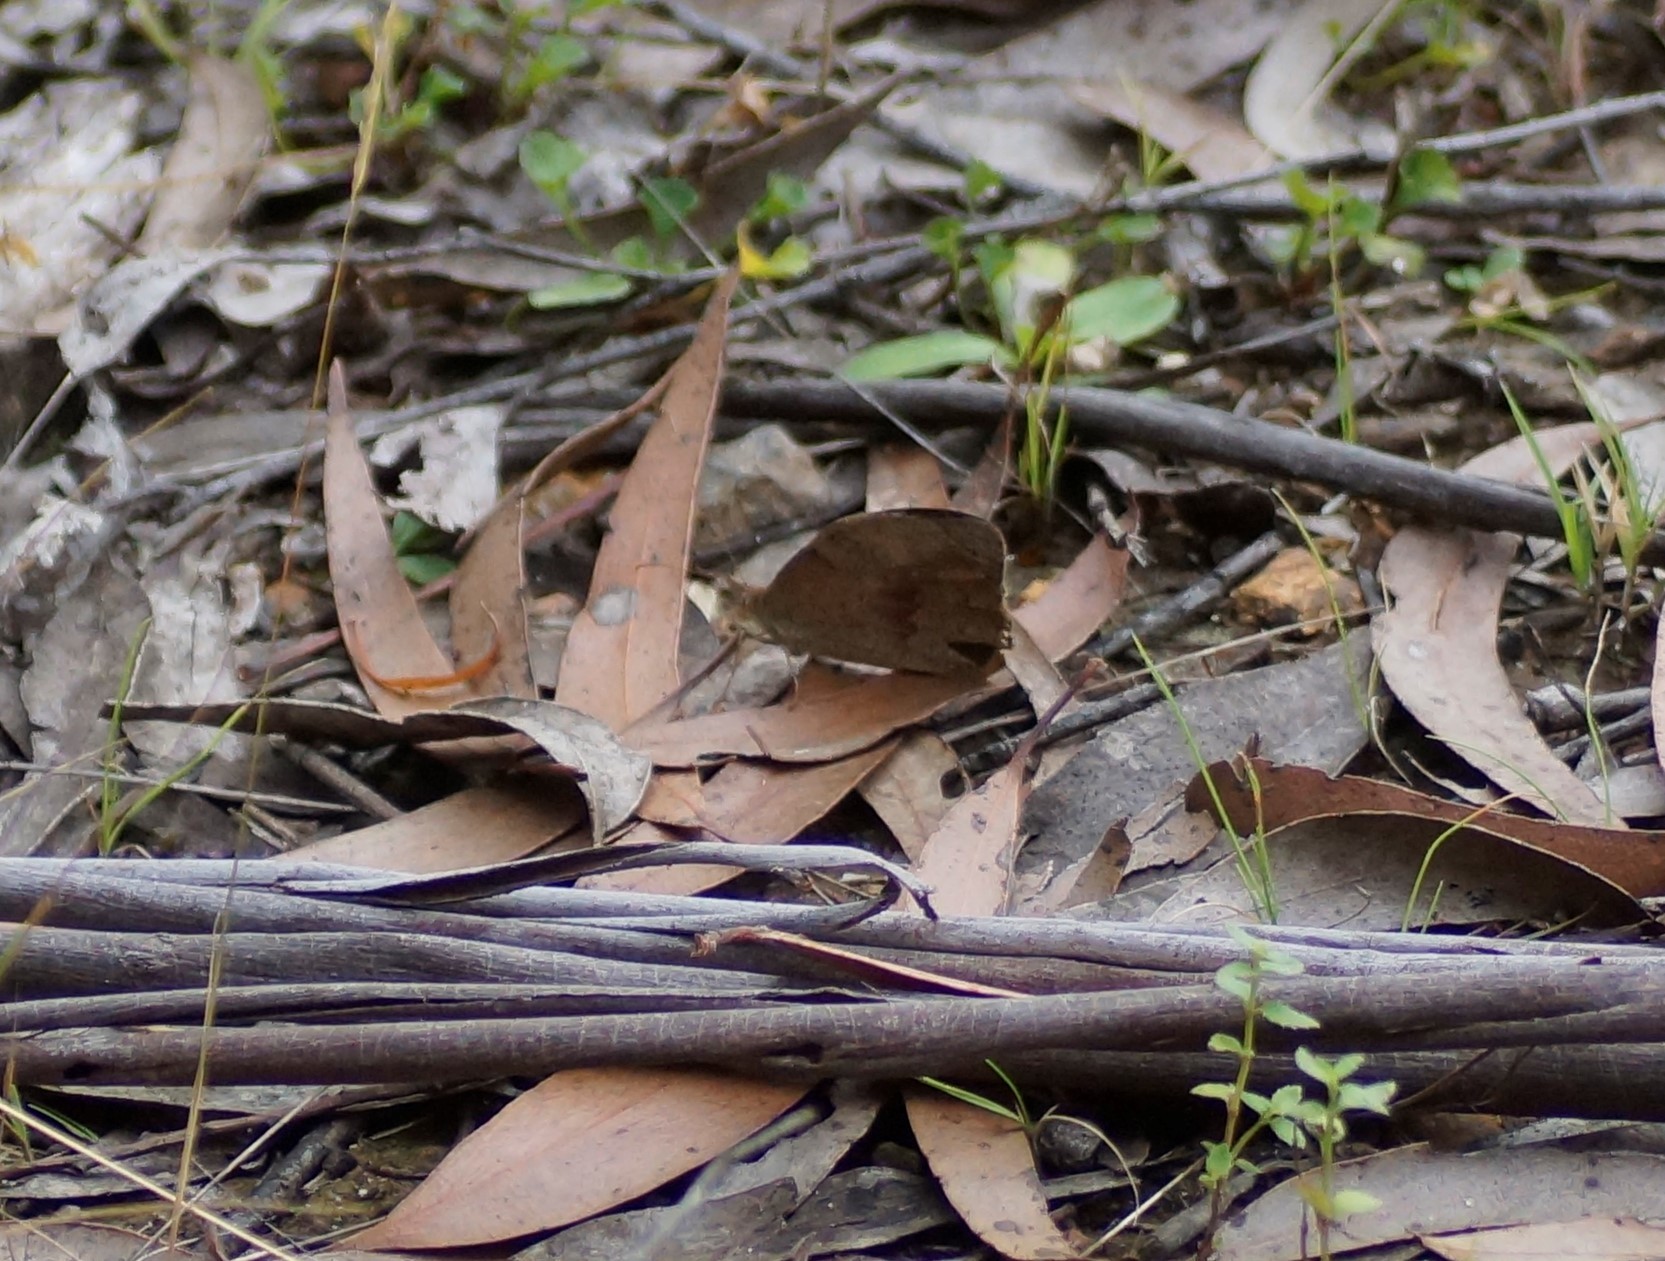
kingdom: Animalia
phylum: Arthropoda
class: Insecta
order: Lepidoptera
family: Nymphalidae
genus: Heteronympha
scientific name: Heteronympha merope
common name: Common brown
